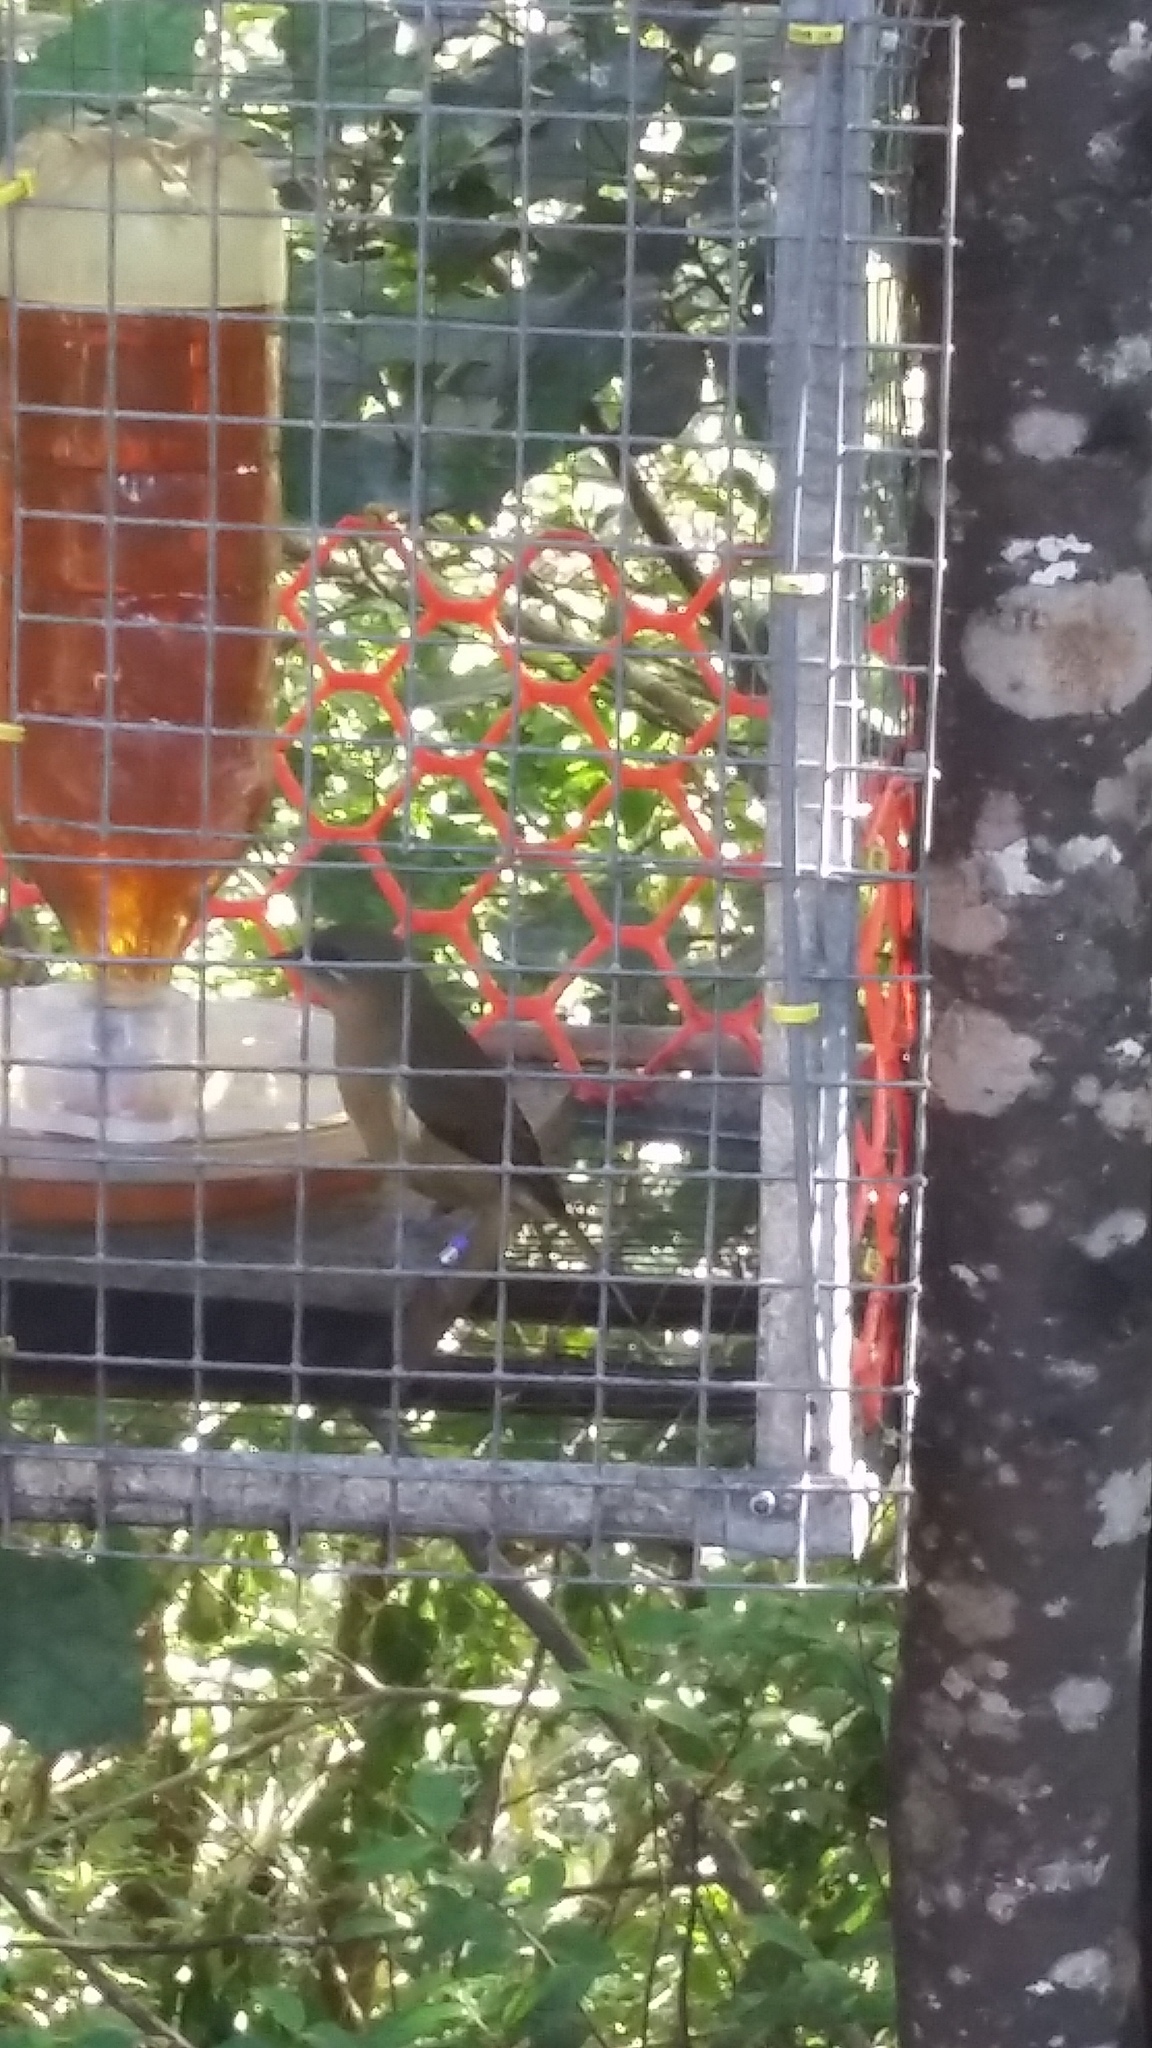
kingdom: Animalia
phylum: Chordata
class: Aves
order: Passeriformes
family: Meliphagidae
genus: Anthornis
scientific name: Anthornis melanura
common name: New zealand bellbird
